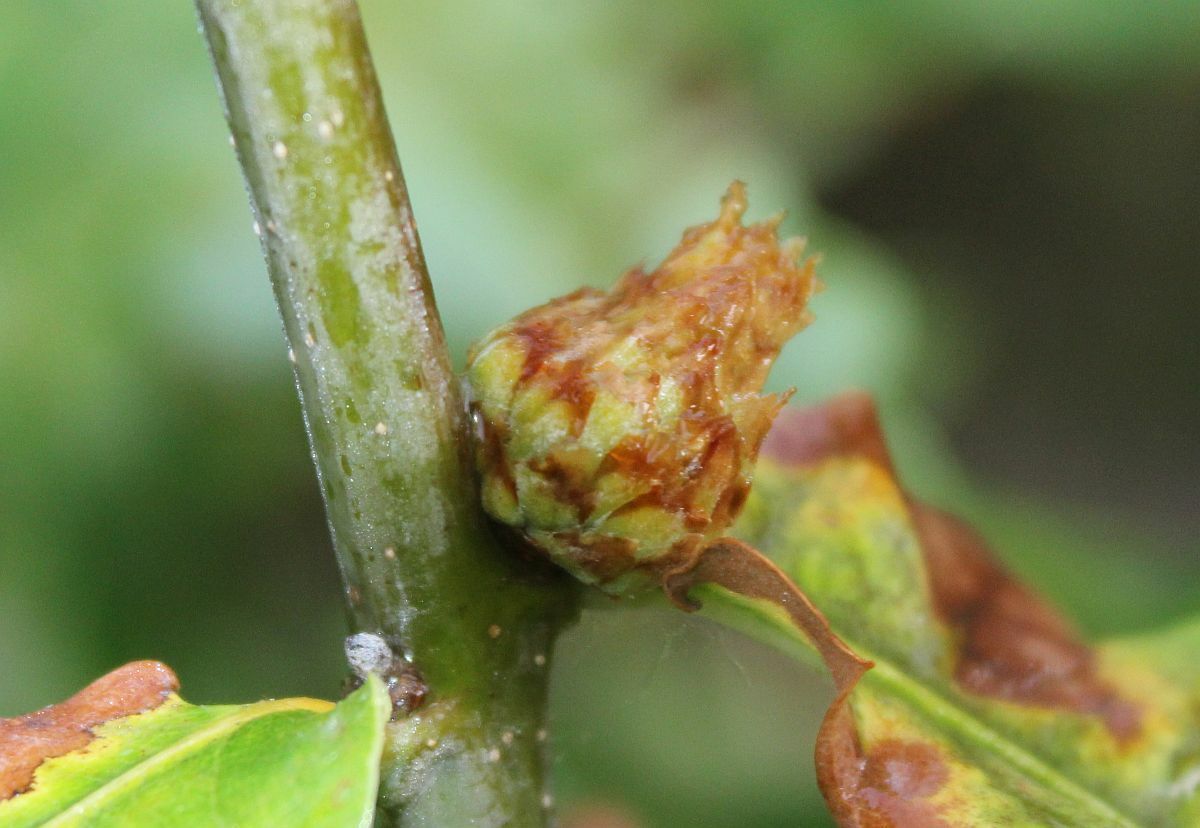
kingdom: Animalia
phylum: Arthropoda
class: Insecta
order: Hymenoptera
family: Cynipidae
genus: Andricus
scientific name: Andricus foecundatrix
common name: Artichoke gall
